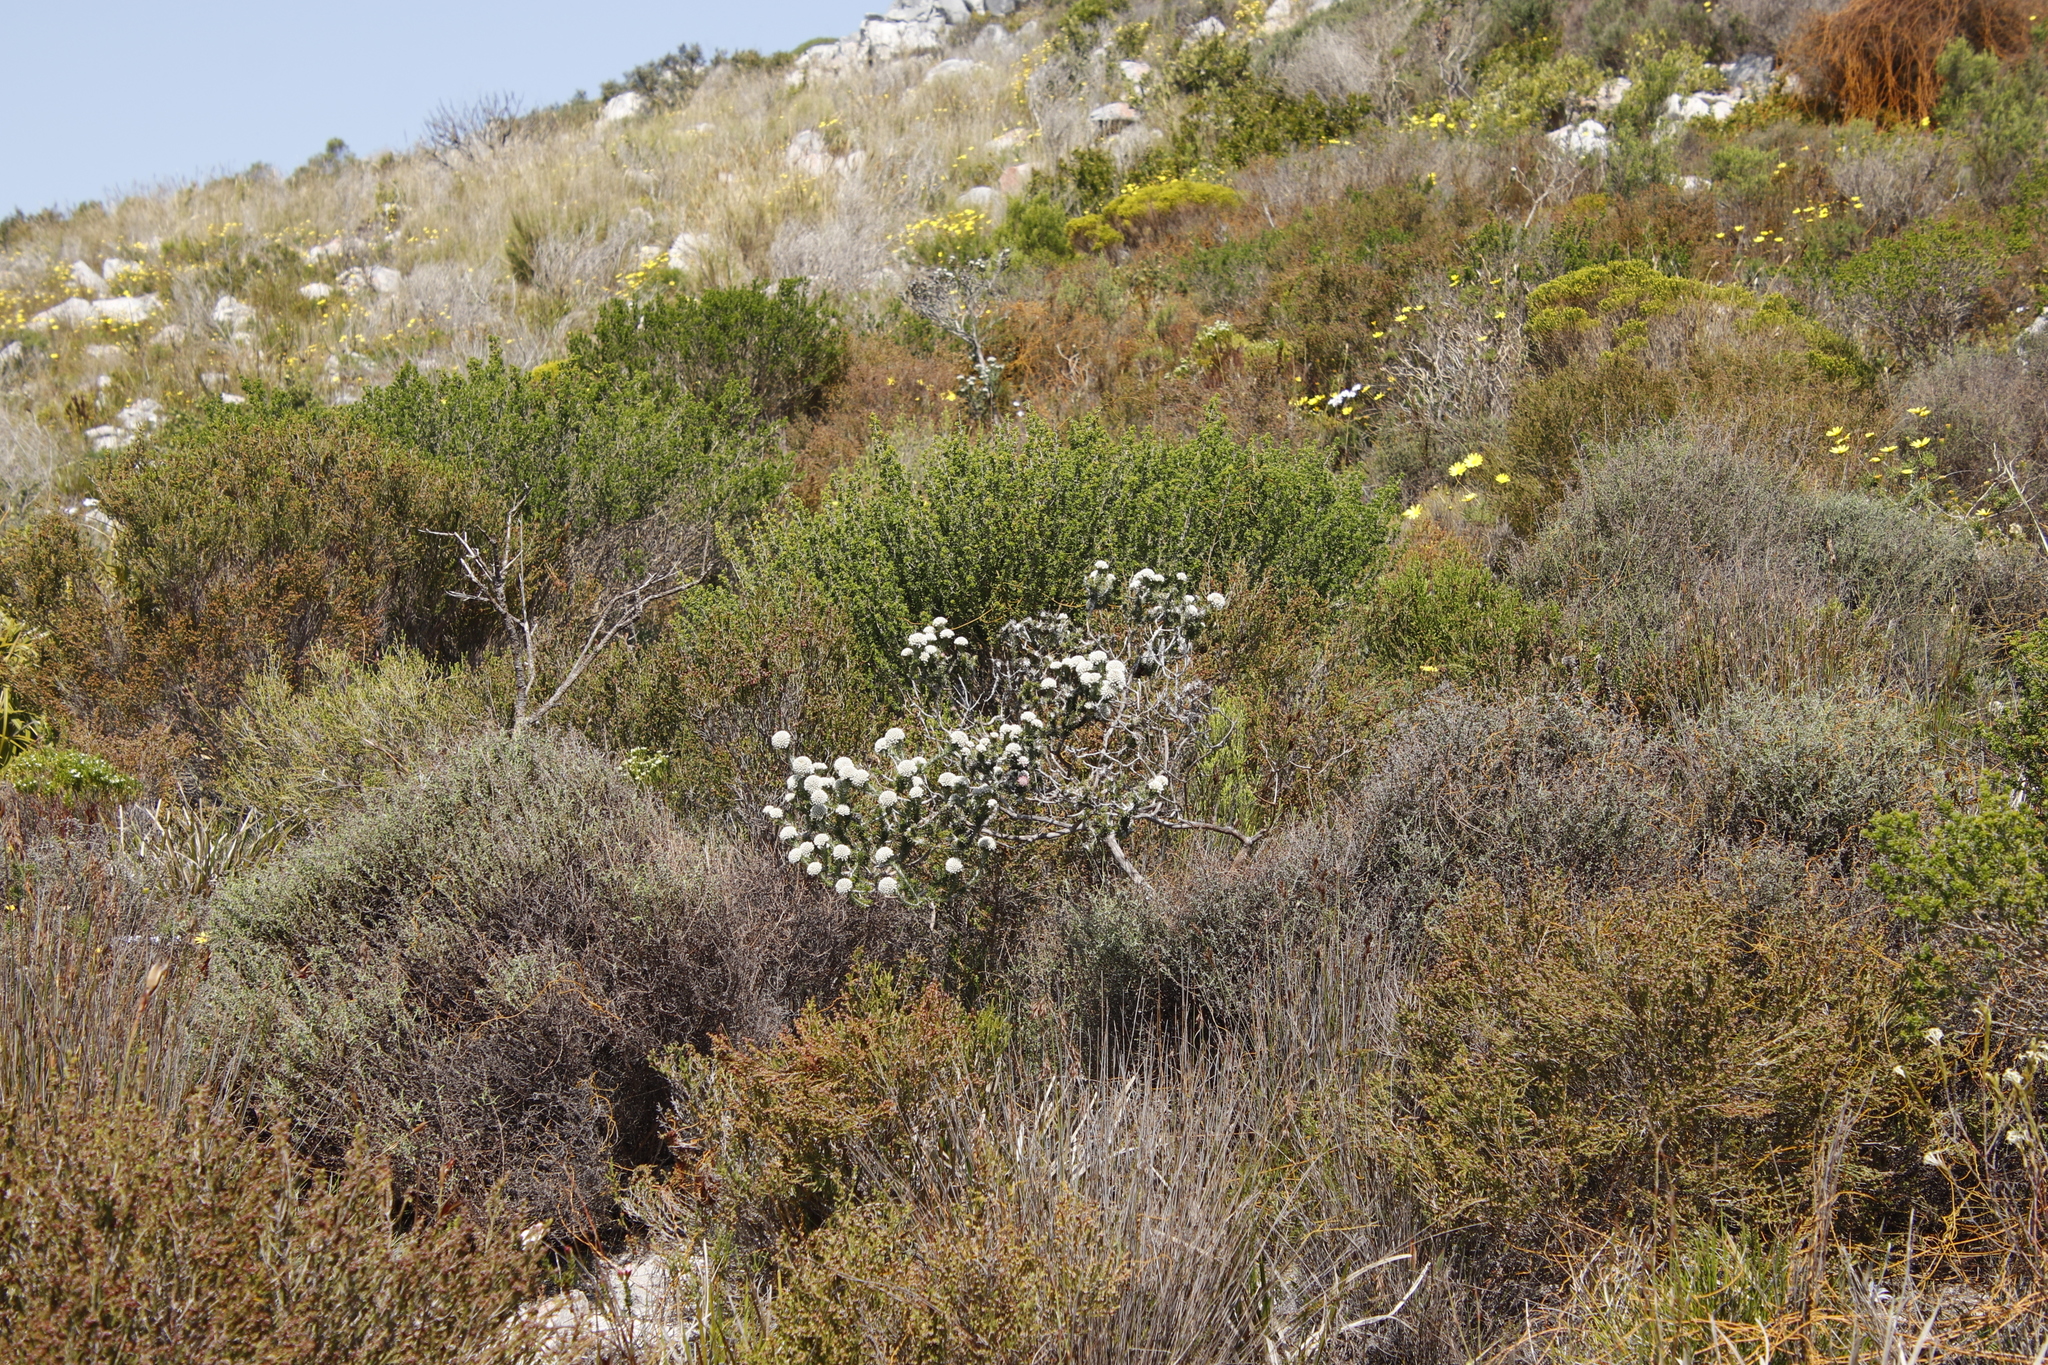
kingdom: Plantae
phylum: Tracheophyta
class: Magnoliopsida
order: Asterales
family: Asteraceae
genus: Metalasia
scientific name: Metalasia compacta
